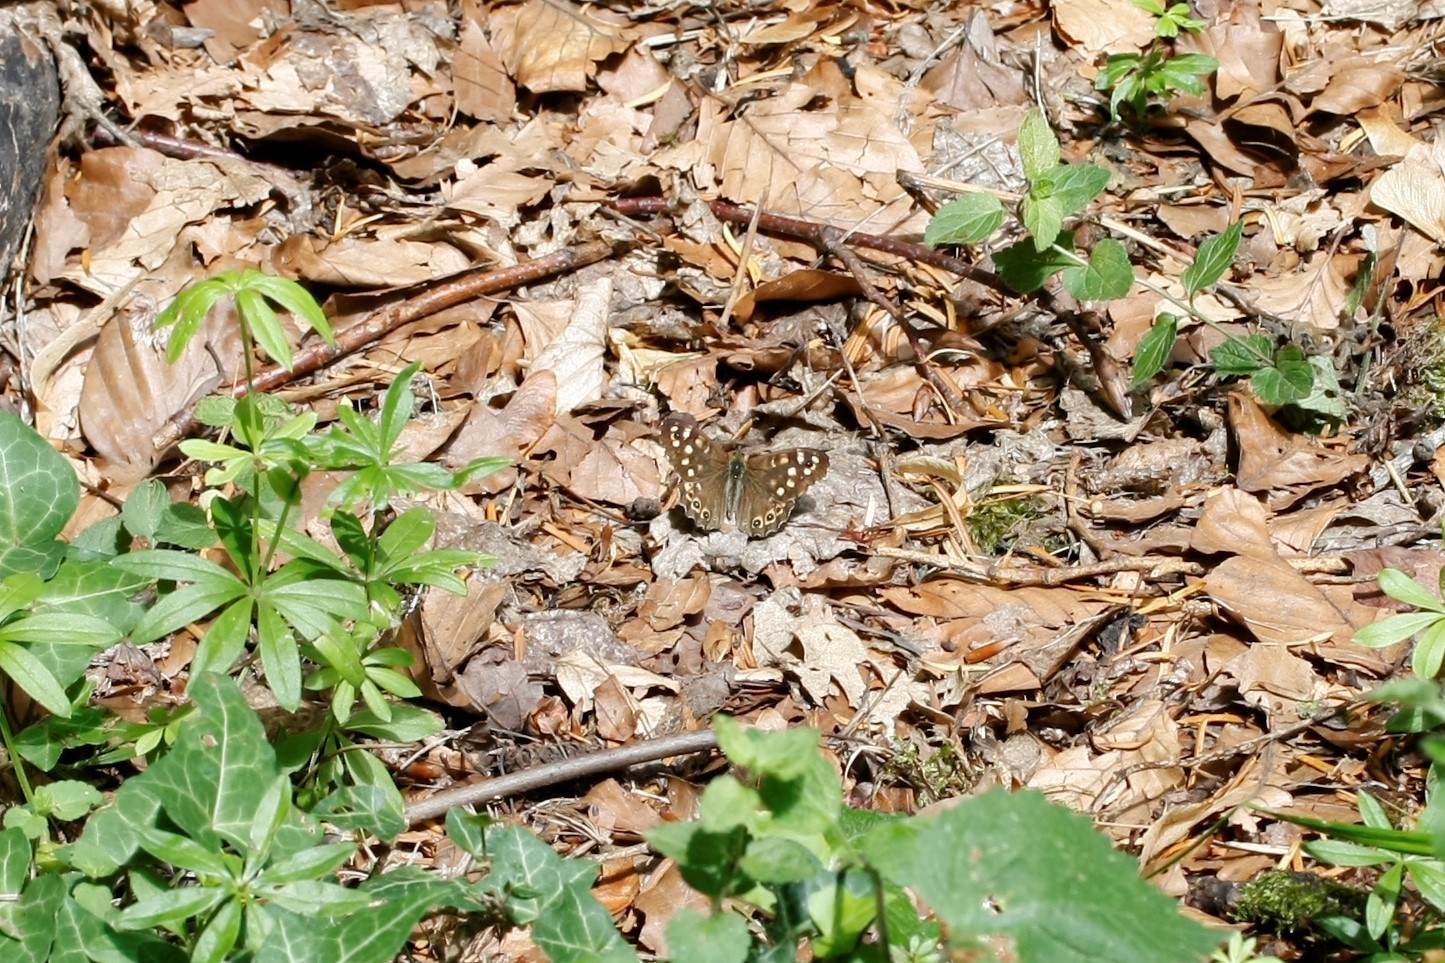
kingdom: Animalia
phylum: Arthropoda
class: Insecta
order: Lepidoptera
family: Nymphalidae
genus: Pararge
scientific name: Pararge aegeria
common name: Speckled wood
